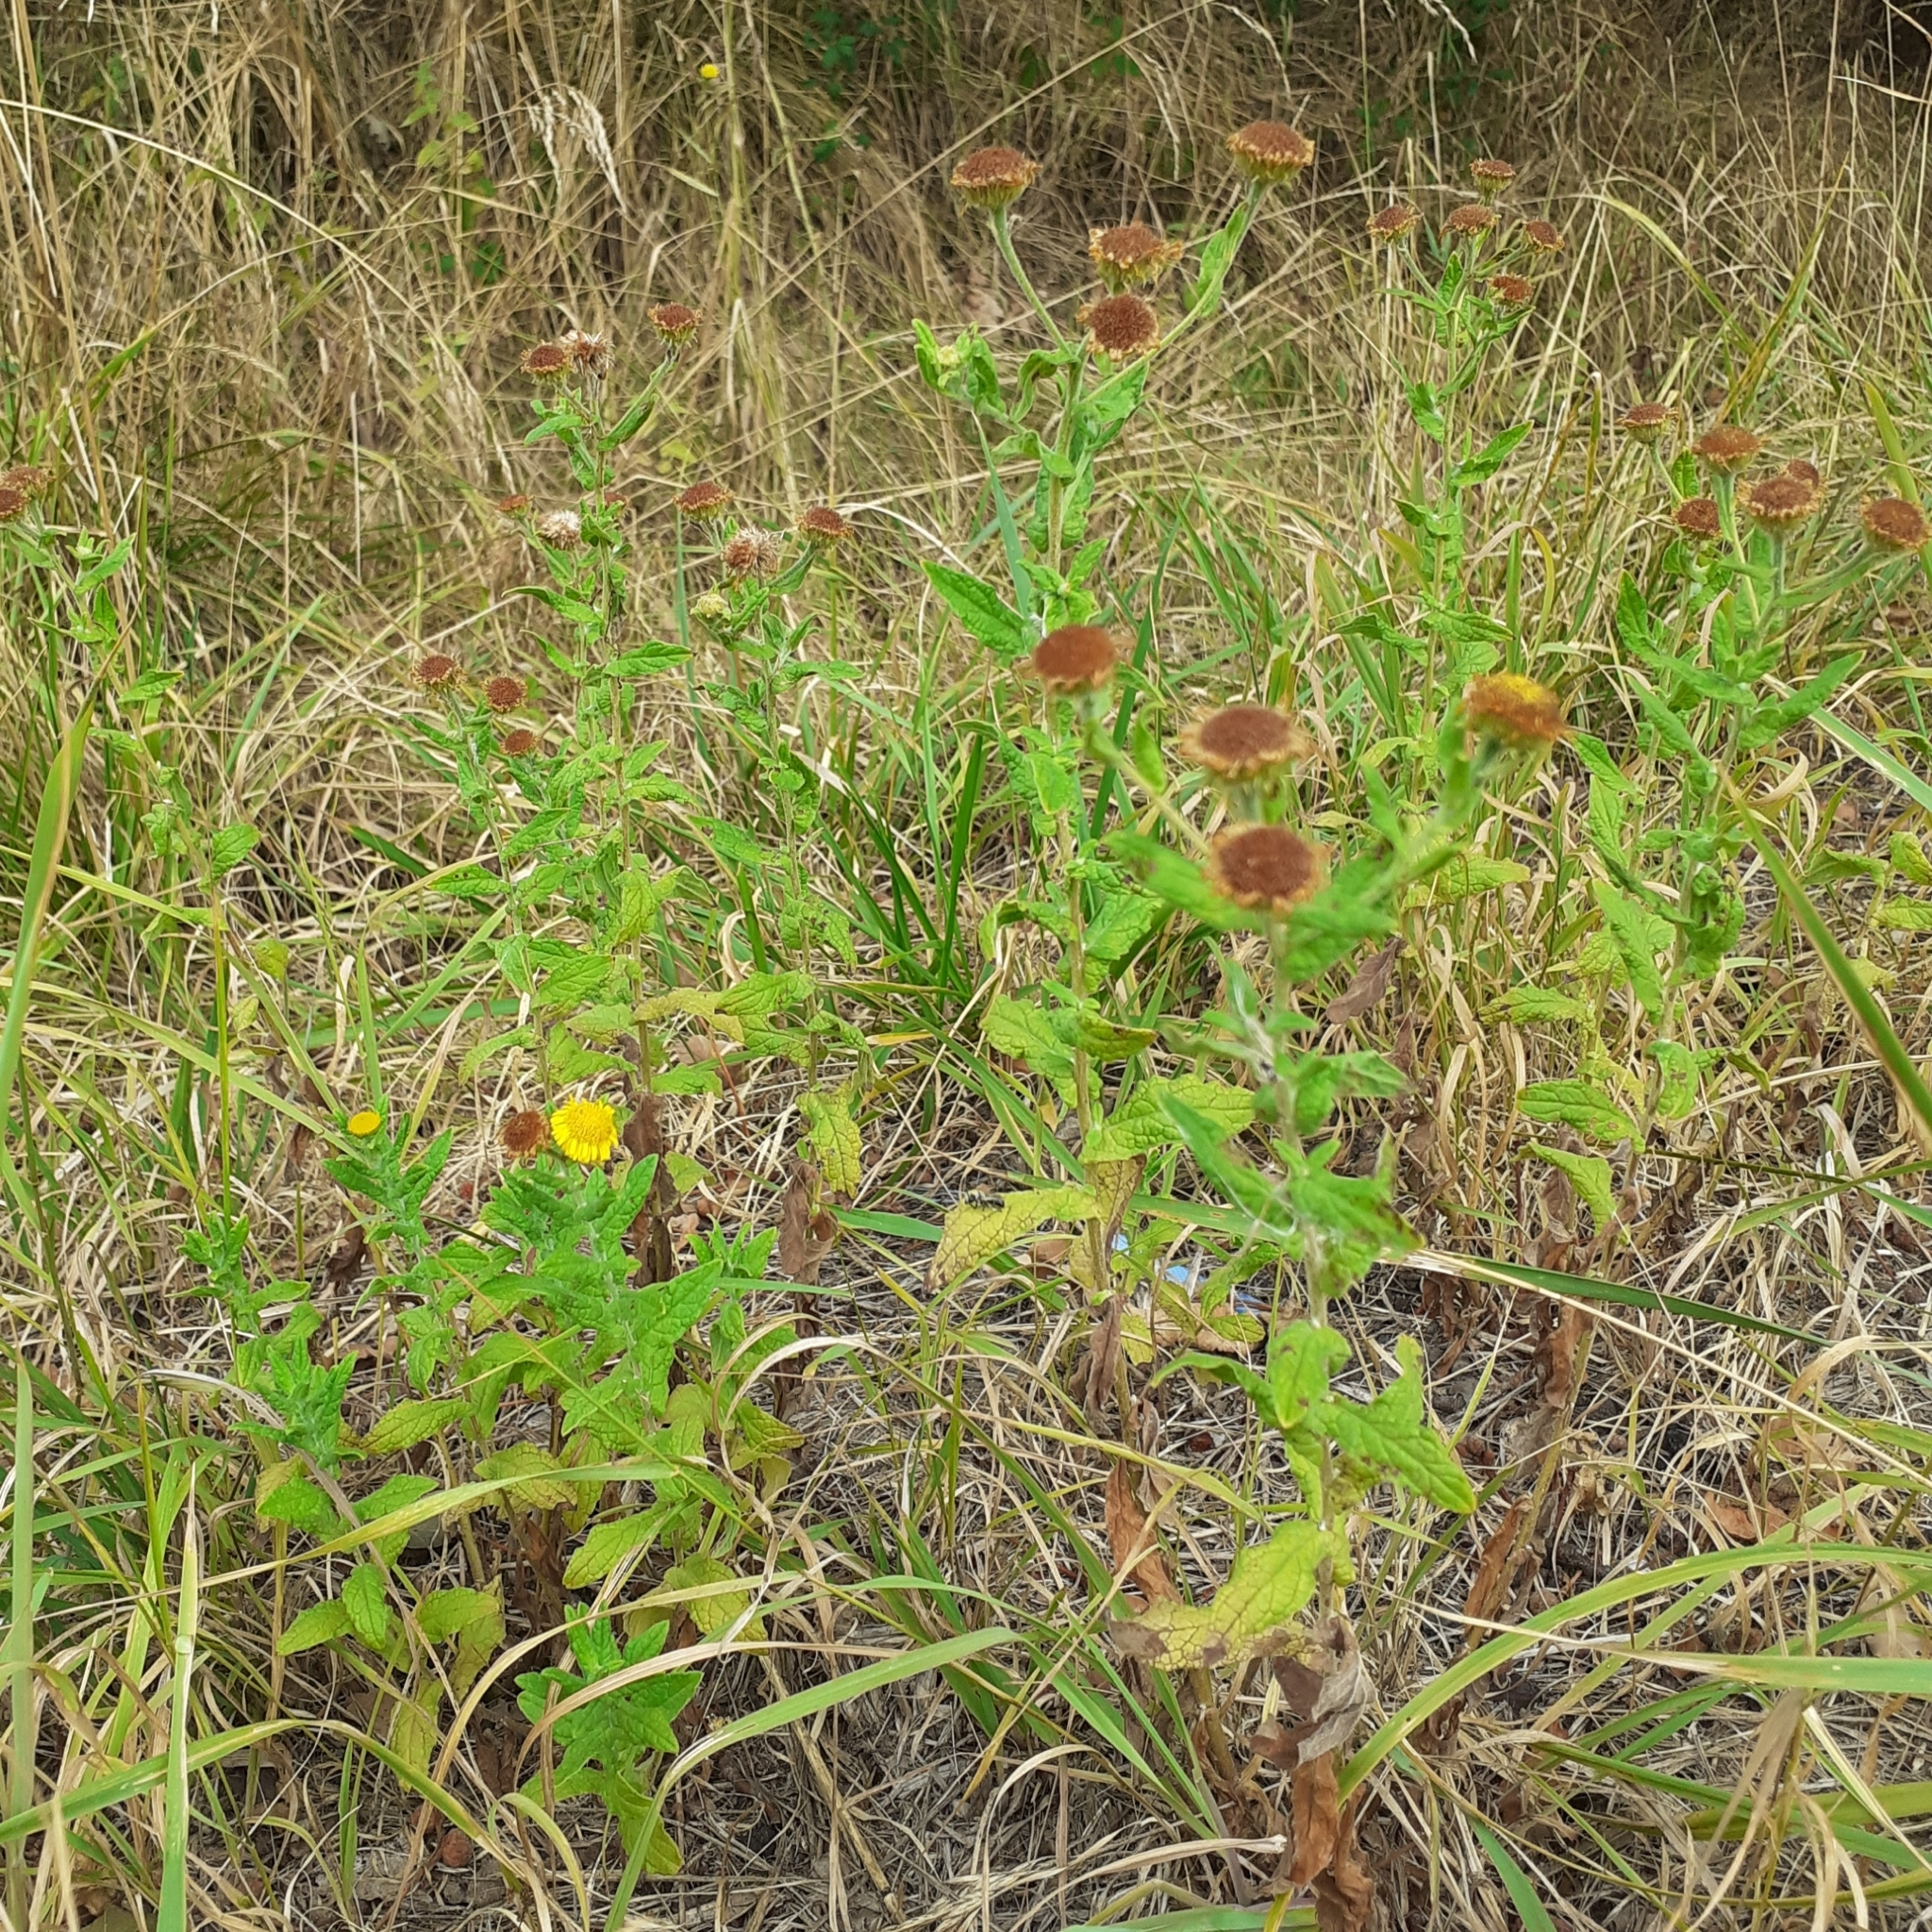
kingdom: Plantae
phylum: Tracheophyta
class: Magnoliopsida
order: Asterales
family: Asteraceae
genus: Pulicaria
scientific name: Pulicaria dysenterica
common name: Common fleabane
